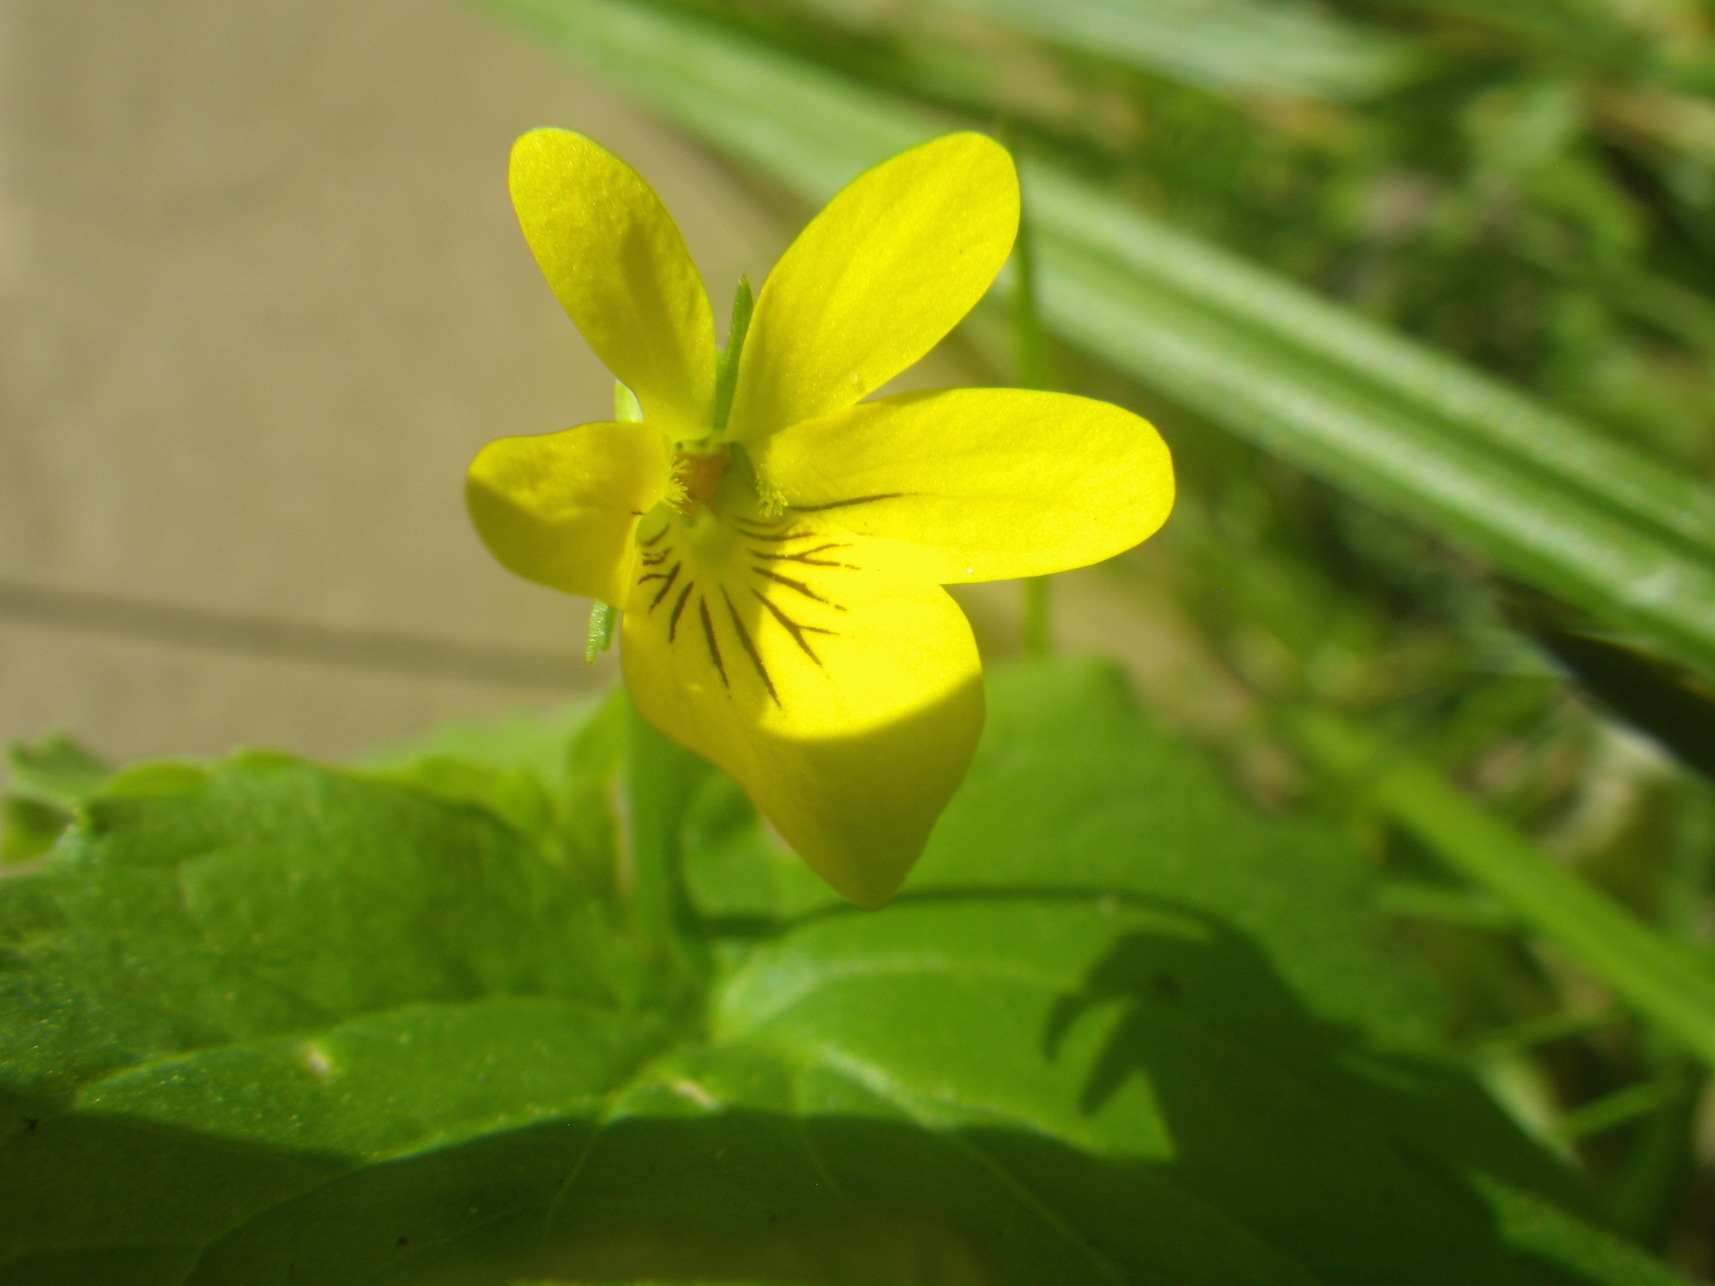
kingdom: Plantae
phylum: Tracheophyta
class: Magnoliopsida
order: Malpighiales
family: Violaceae
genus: Viola
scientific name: Viola glabella
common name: Stream violet
